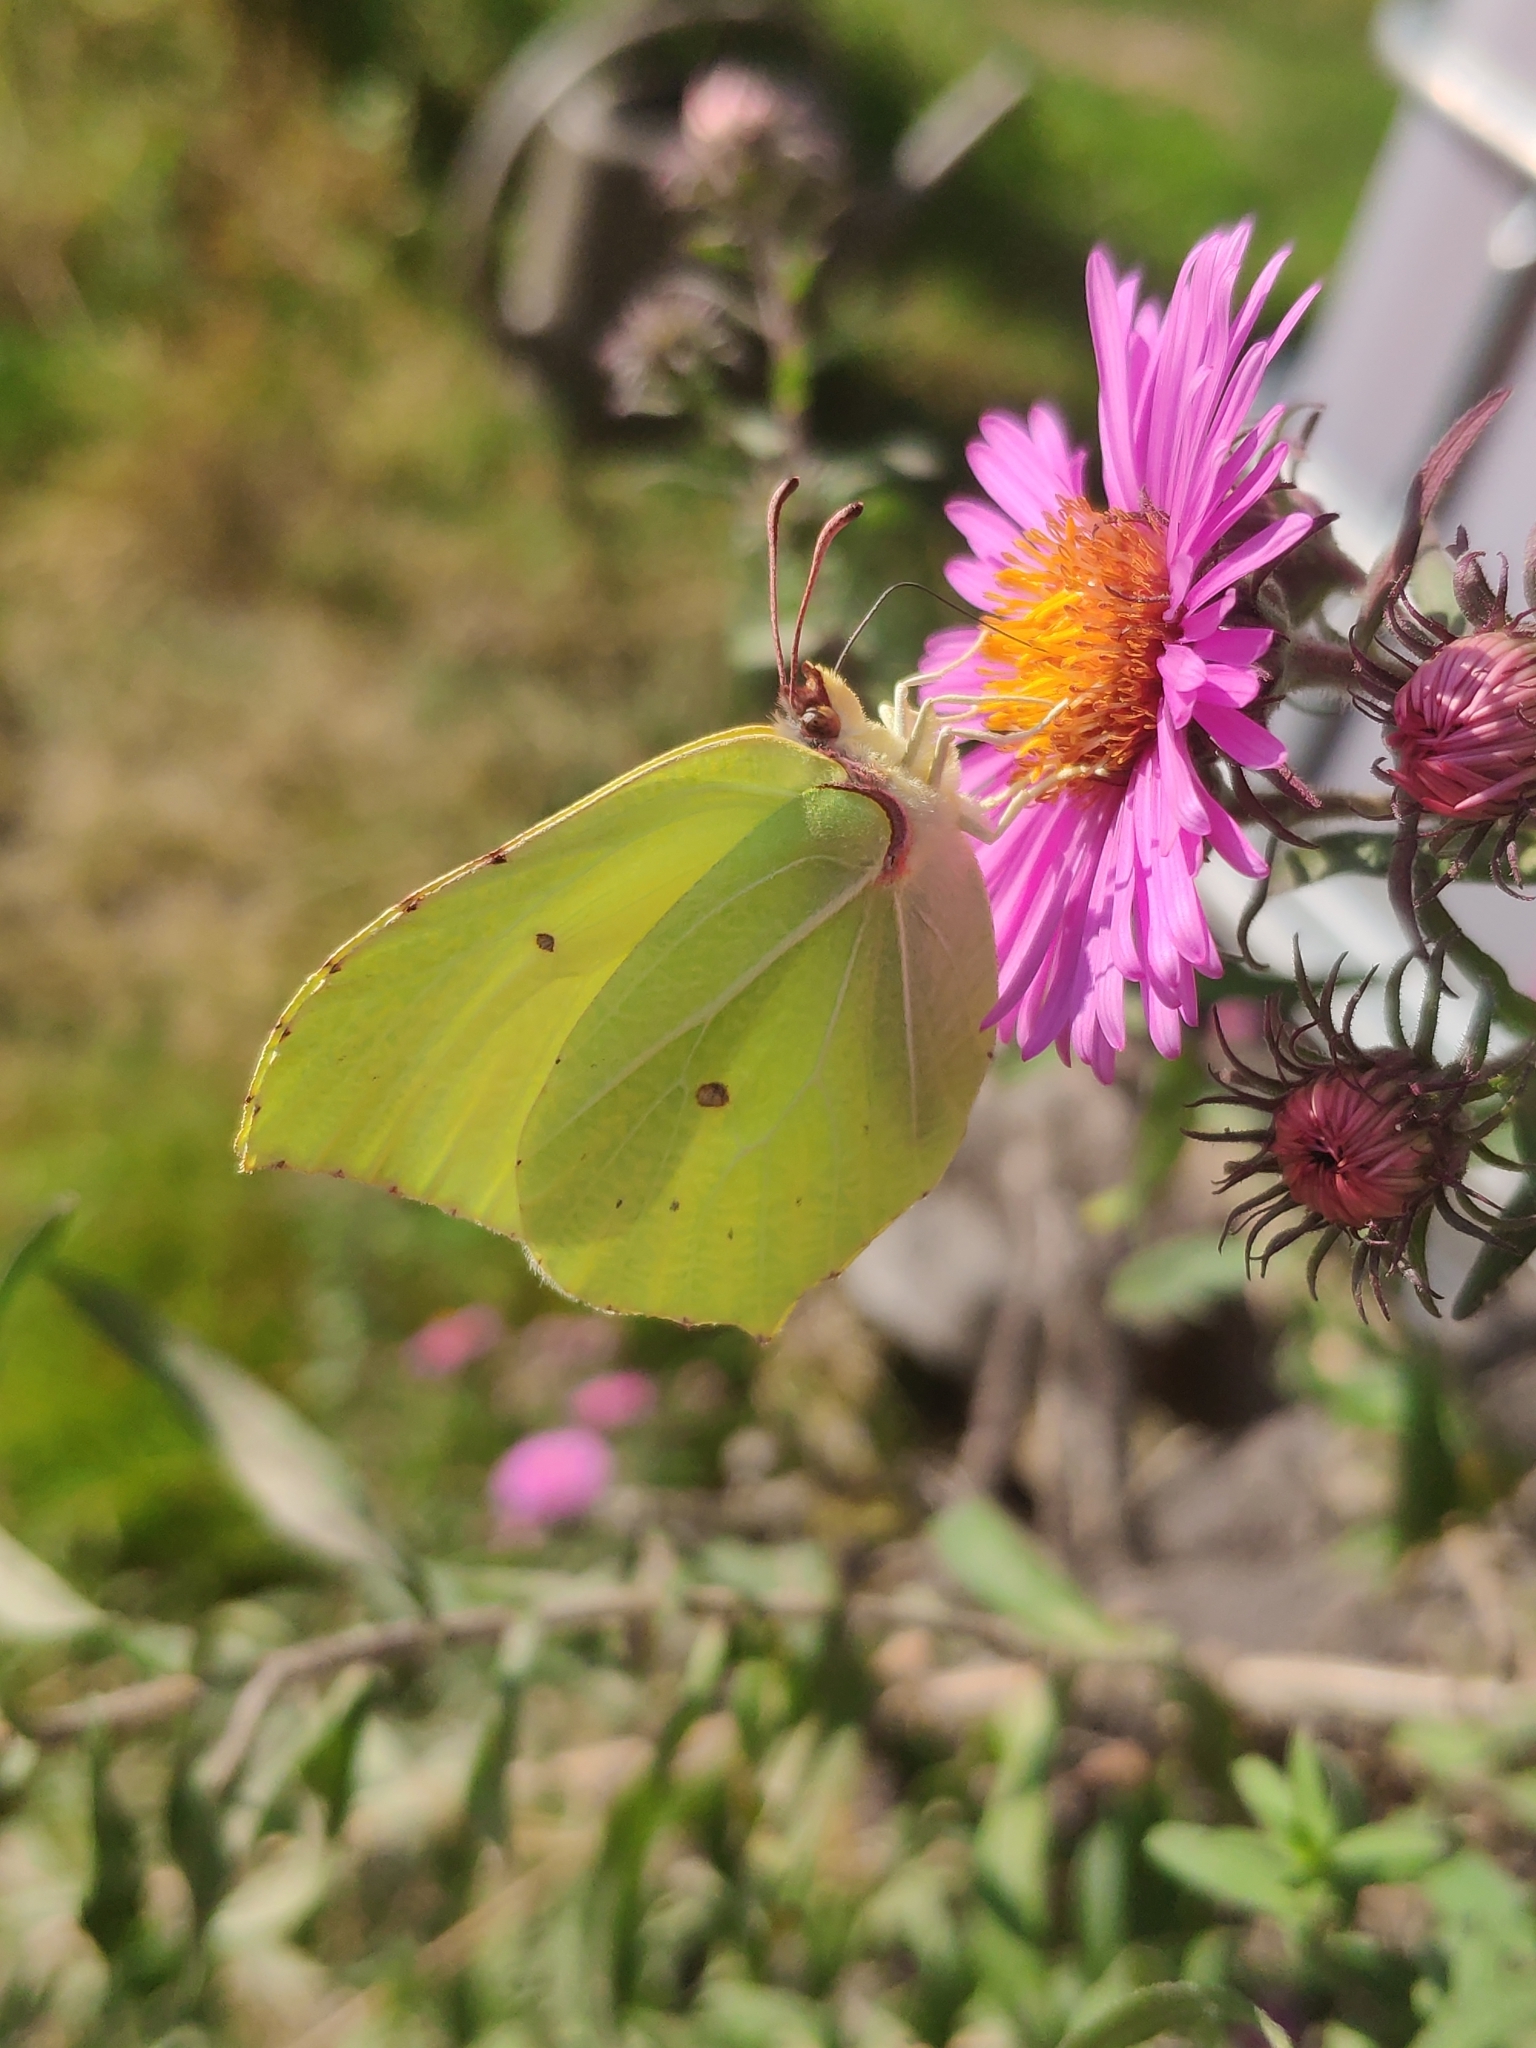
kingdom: Animalia
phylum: Arthropoda
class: Insecta
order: Lepidoptera
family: Pieridae
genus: Gonepteryx
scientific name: Gonepteryx rhamni
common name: Brimstone
